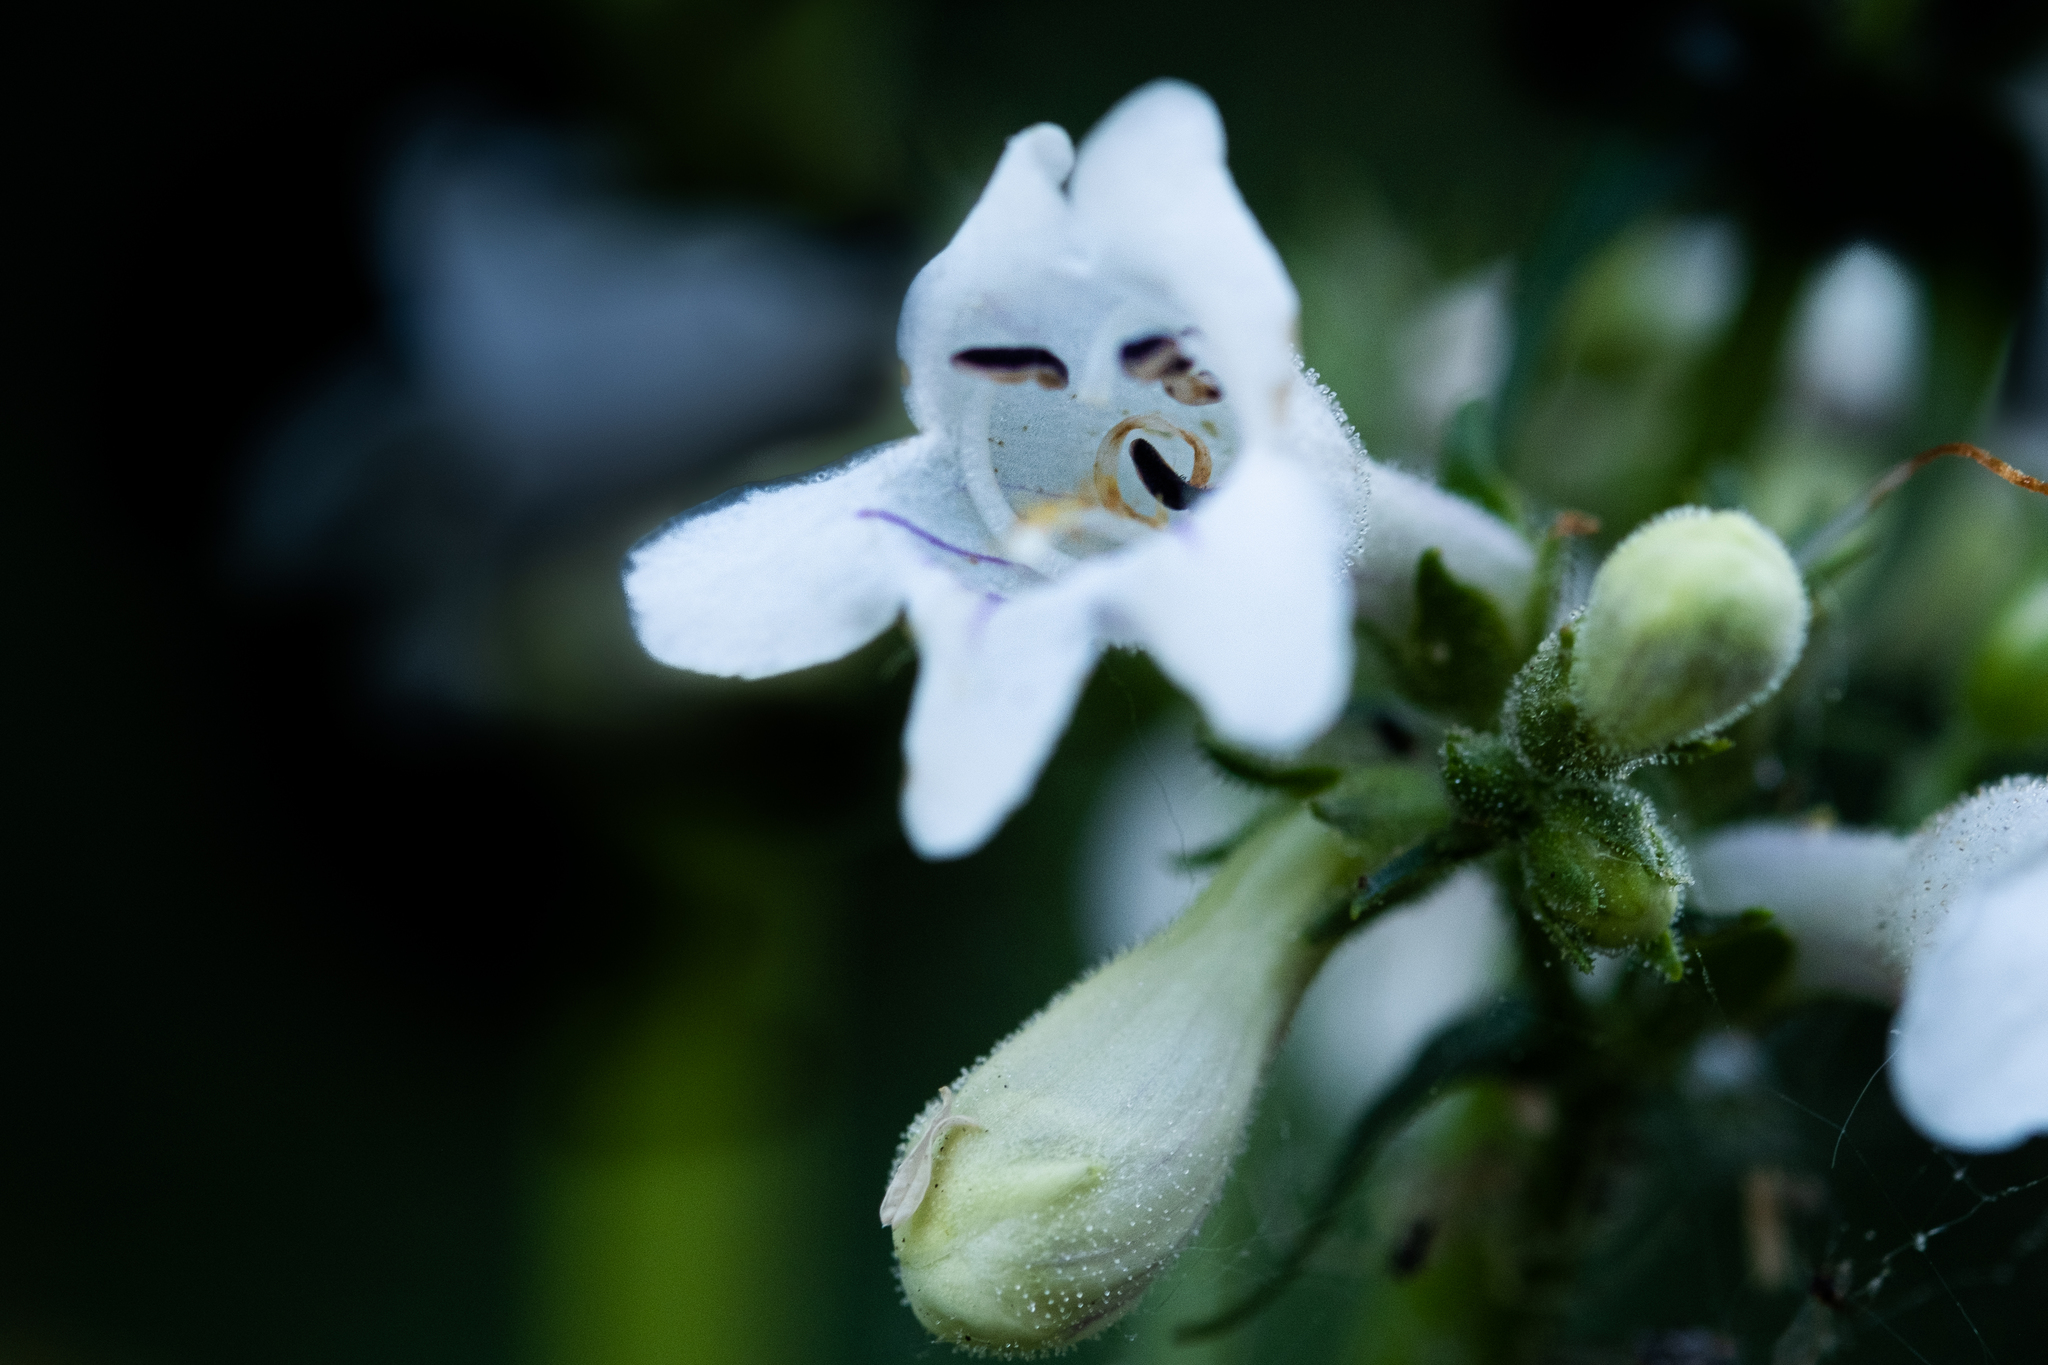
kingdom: Plantae
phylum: Tracheophyta
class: Magnoliopsida
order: Lamiales
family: Plantaginaceae
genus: Penstemon
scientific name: Penstemon digitalis
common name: Foxglove beardtongue
